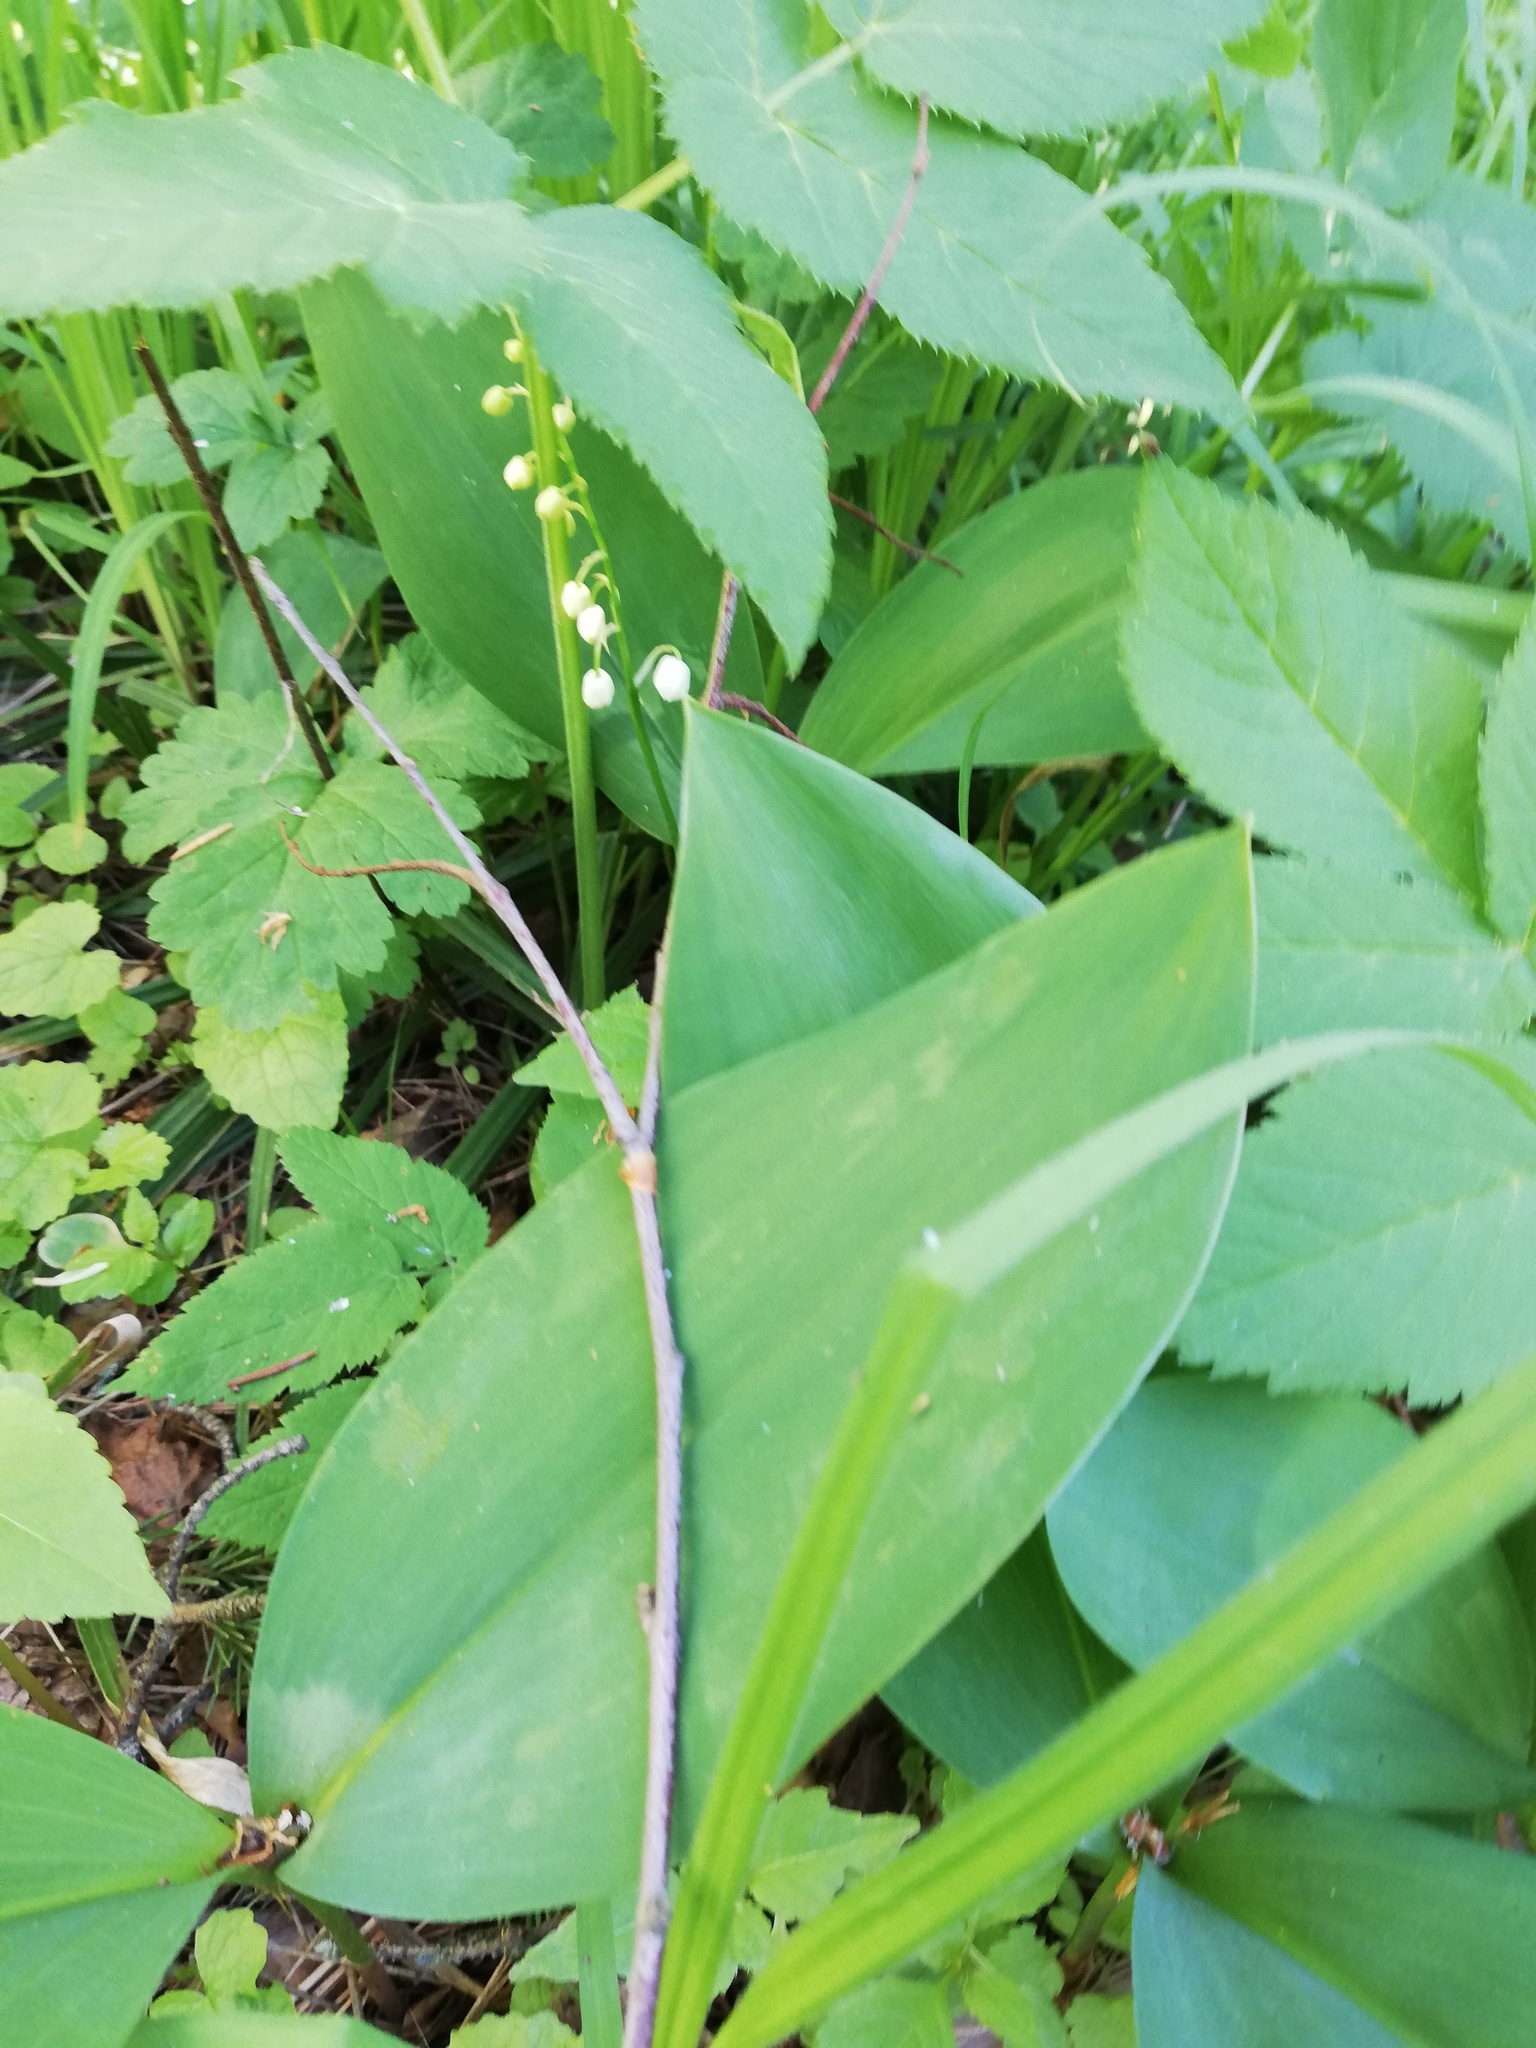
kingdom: Plantae
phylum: Tracheophyta
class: Liliopsida
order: Asparagales
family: Asparagaceae
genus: Convallaria
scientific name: Convallaria majalis
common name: Lily-of-the-valley
